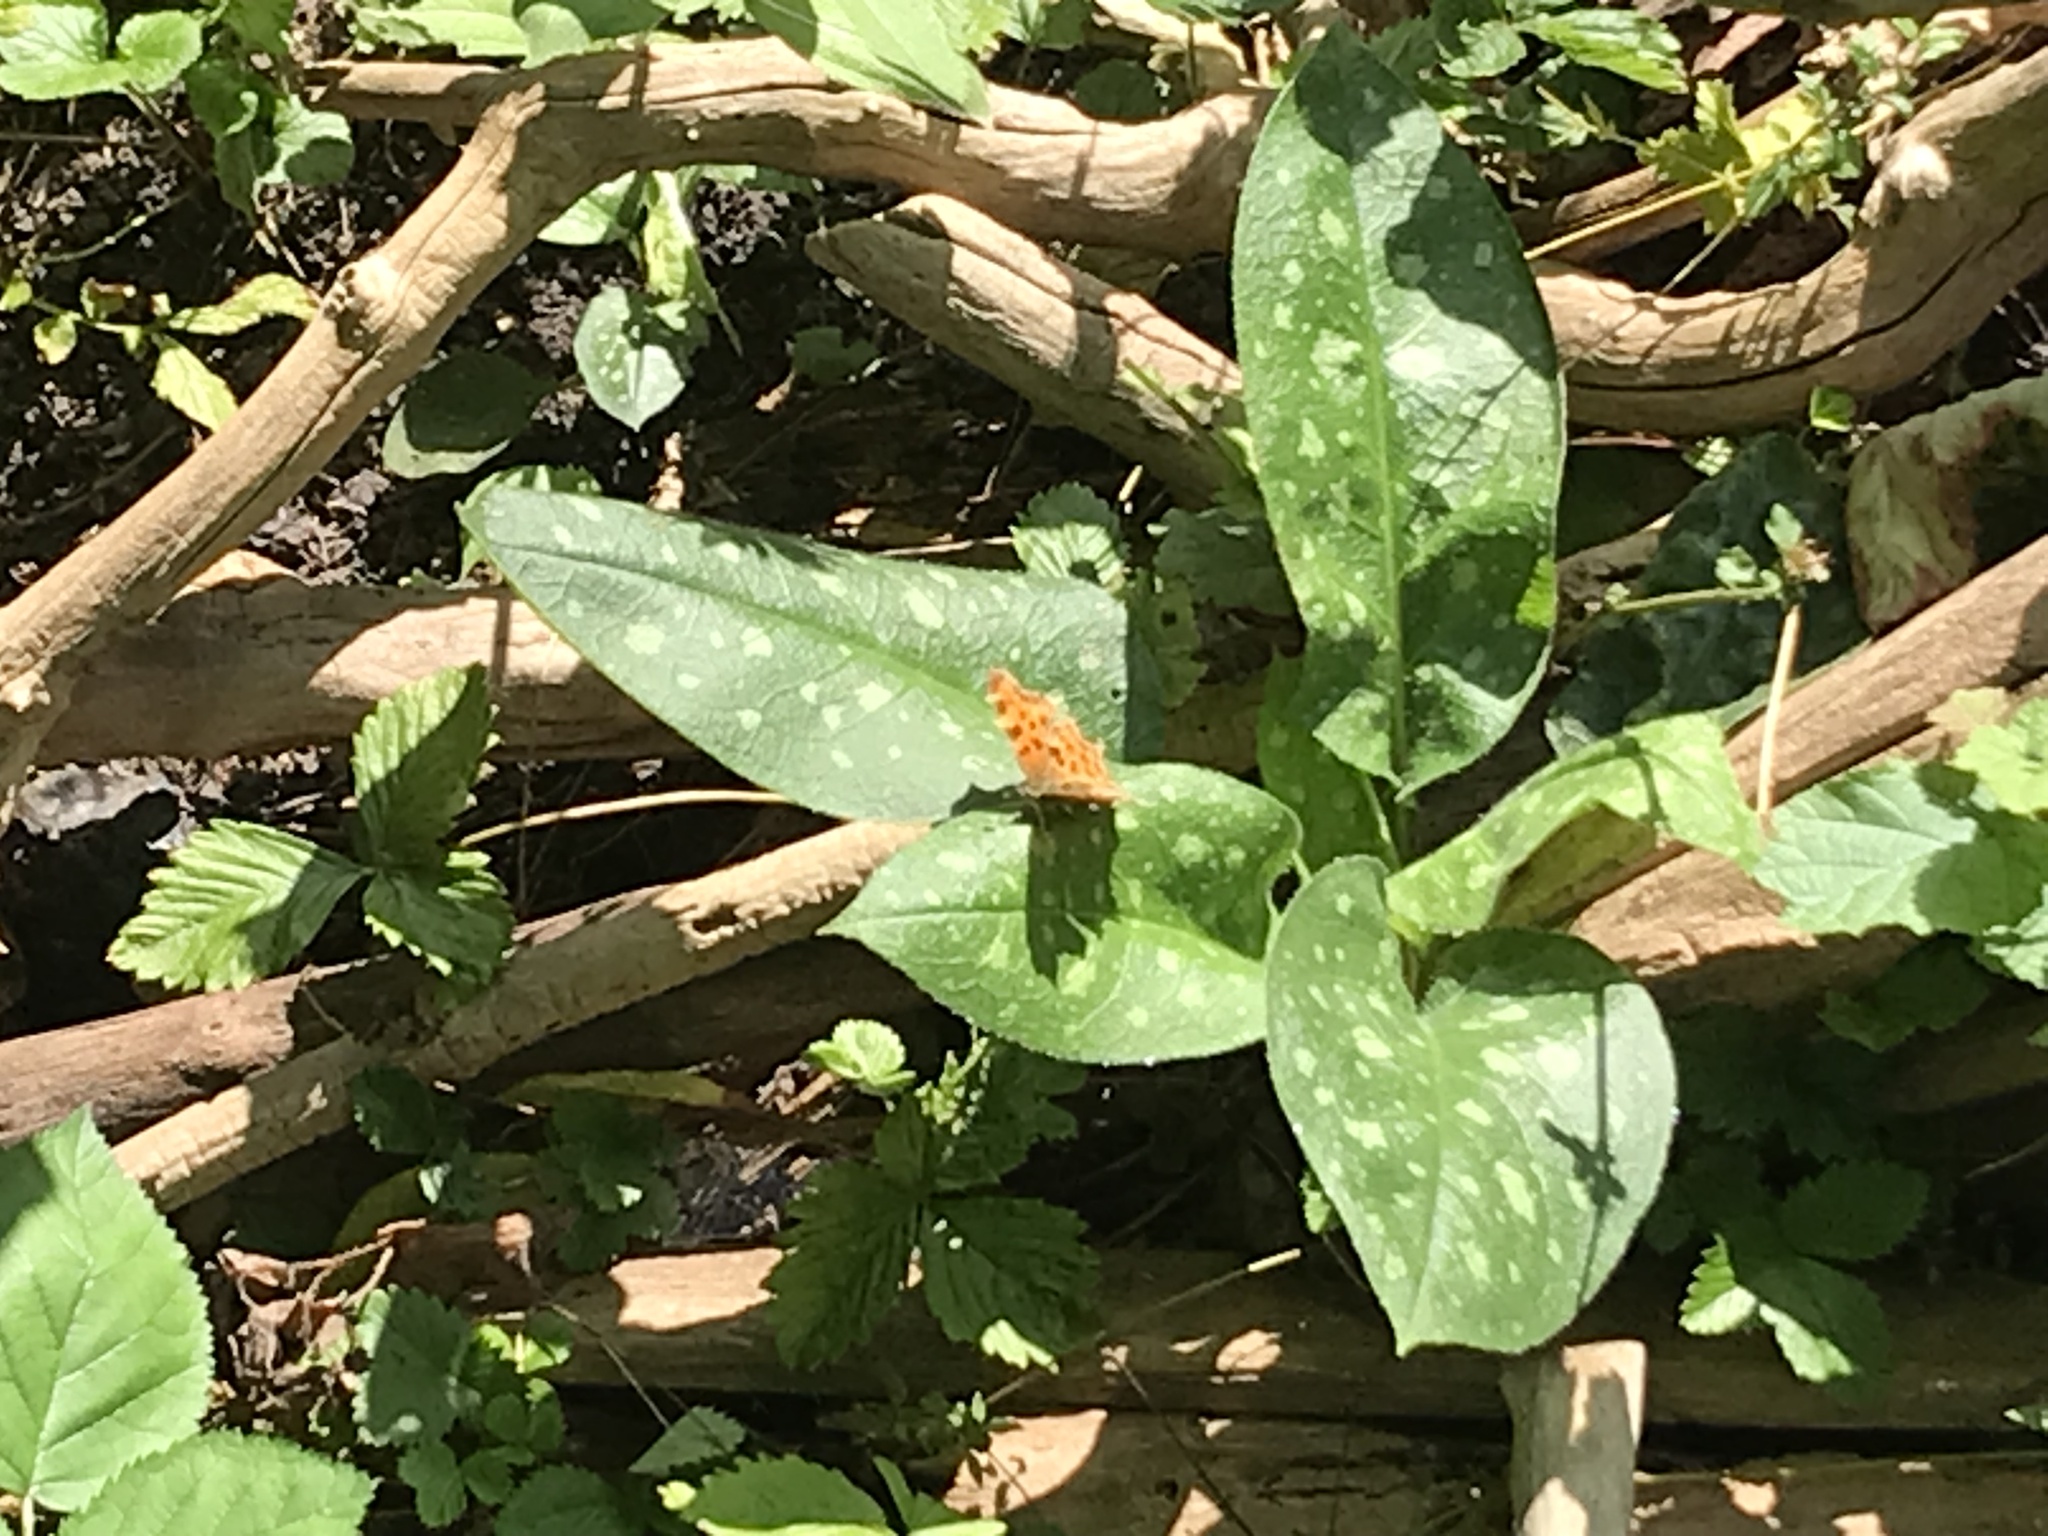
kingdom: Animalia
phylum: Arthropoda
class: Insecta
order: Lepidoptera
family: Nymphalidae
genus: Polygonia
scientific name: Polygonia c-album
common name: Comma
